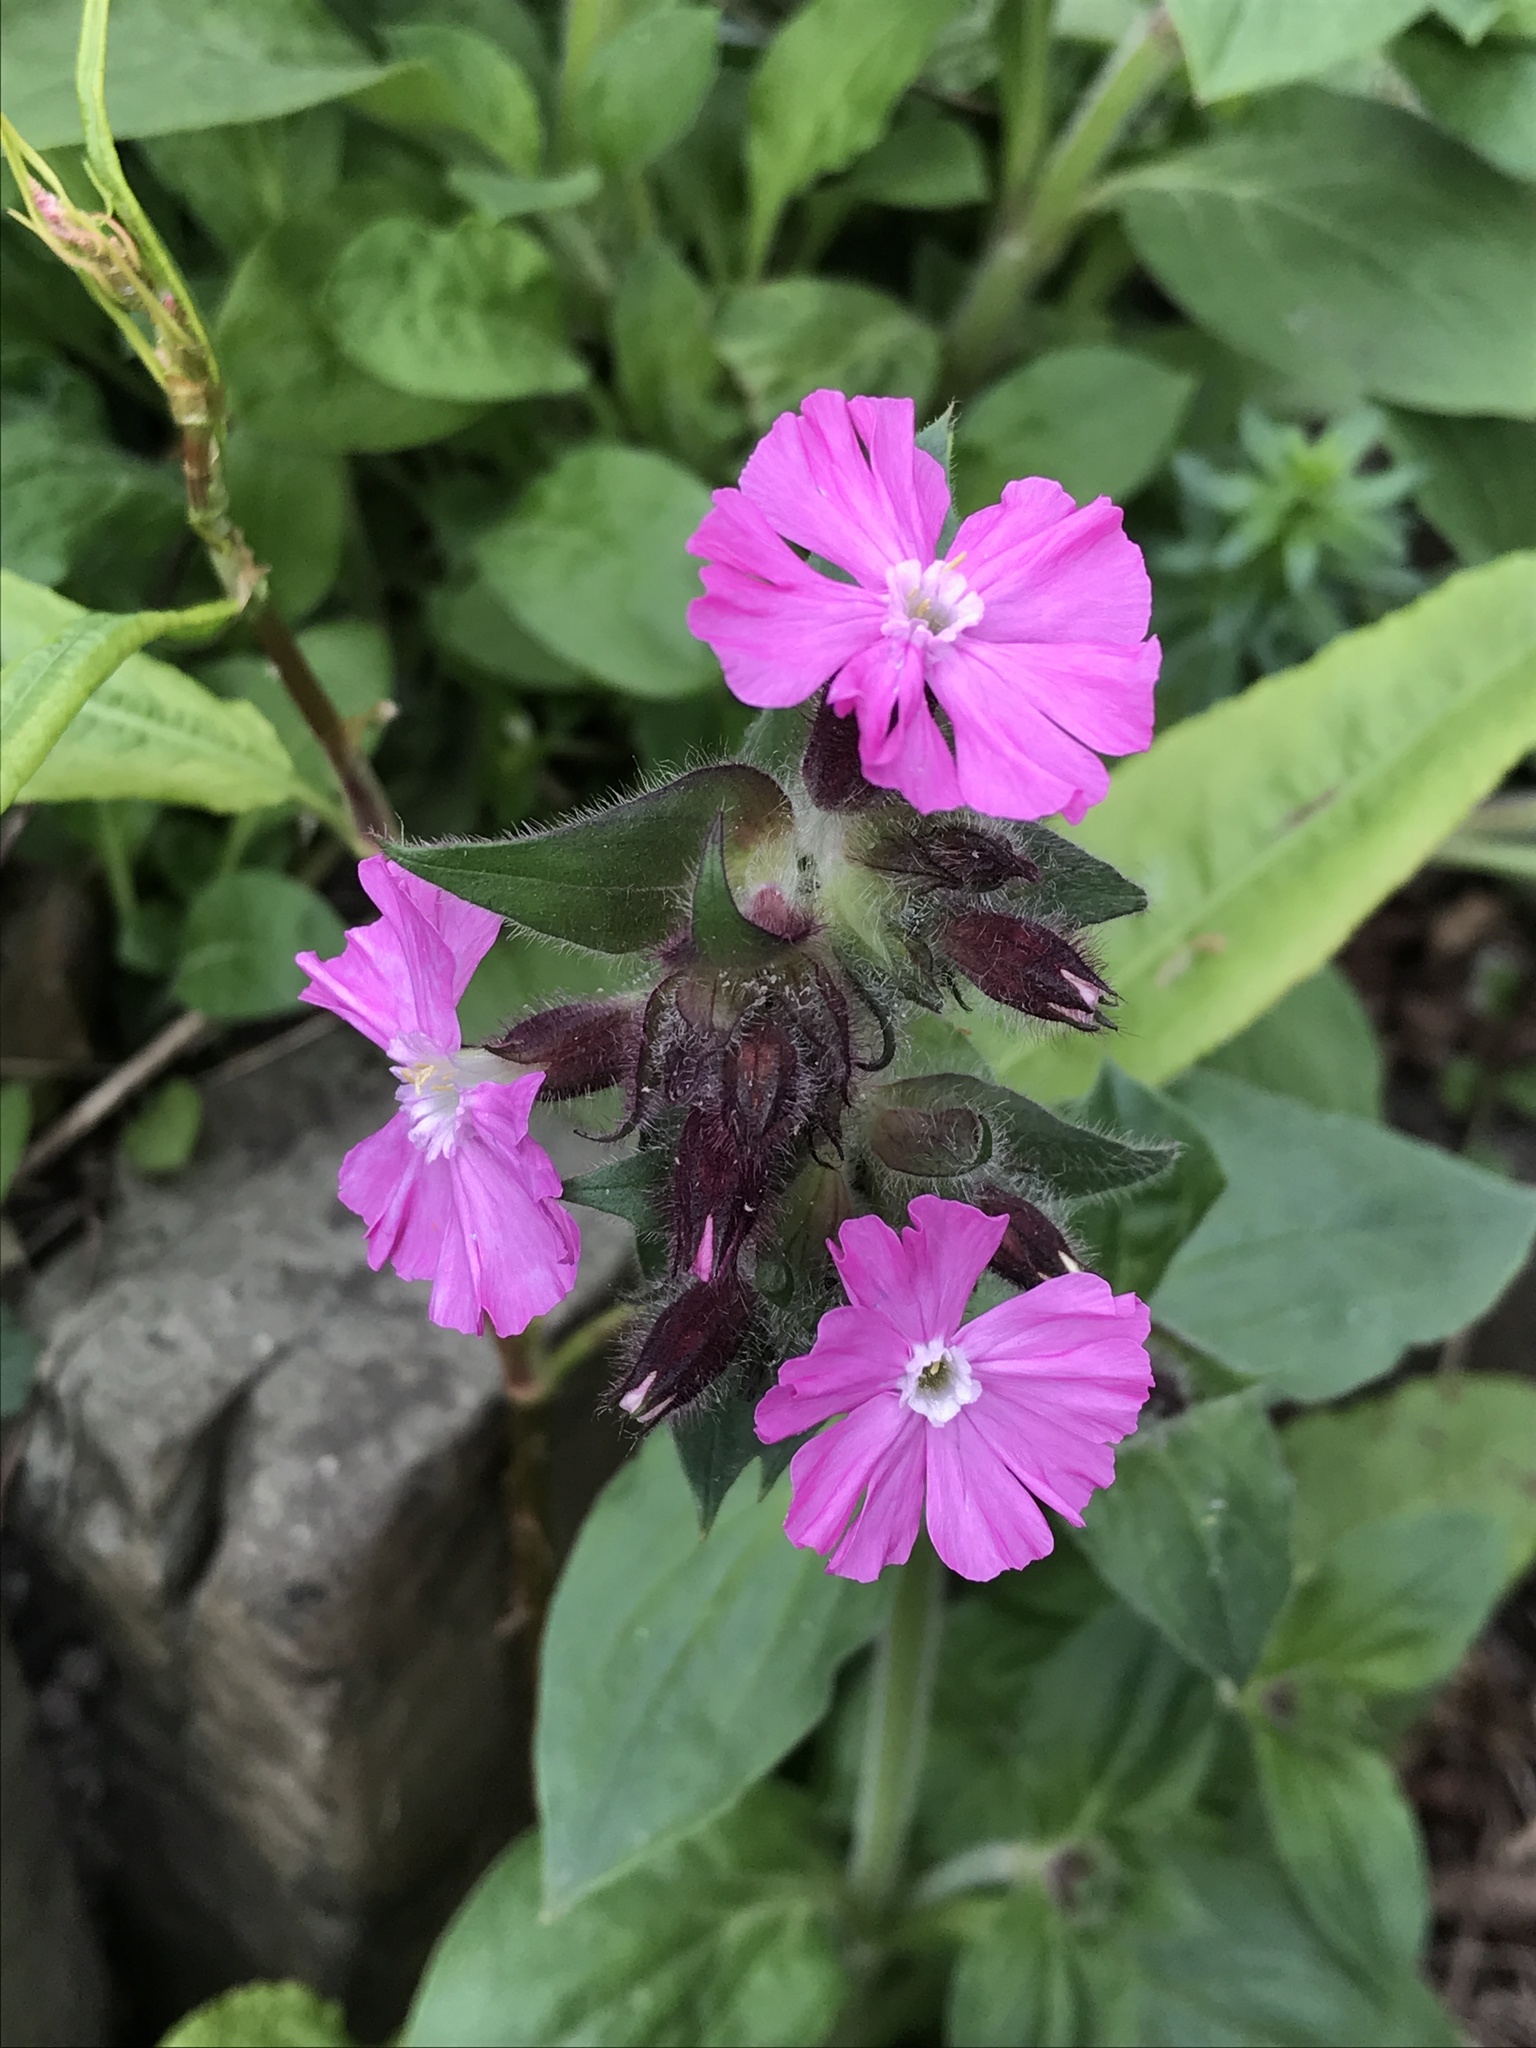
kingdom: Plantae
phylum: Tracheophyta
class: Magnoliopsida
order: Caryophyllales
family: Caryophyllaceae
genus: Silene
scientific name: Silene dioica
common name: Red campion
